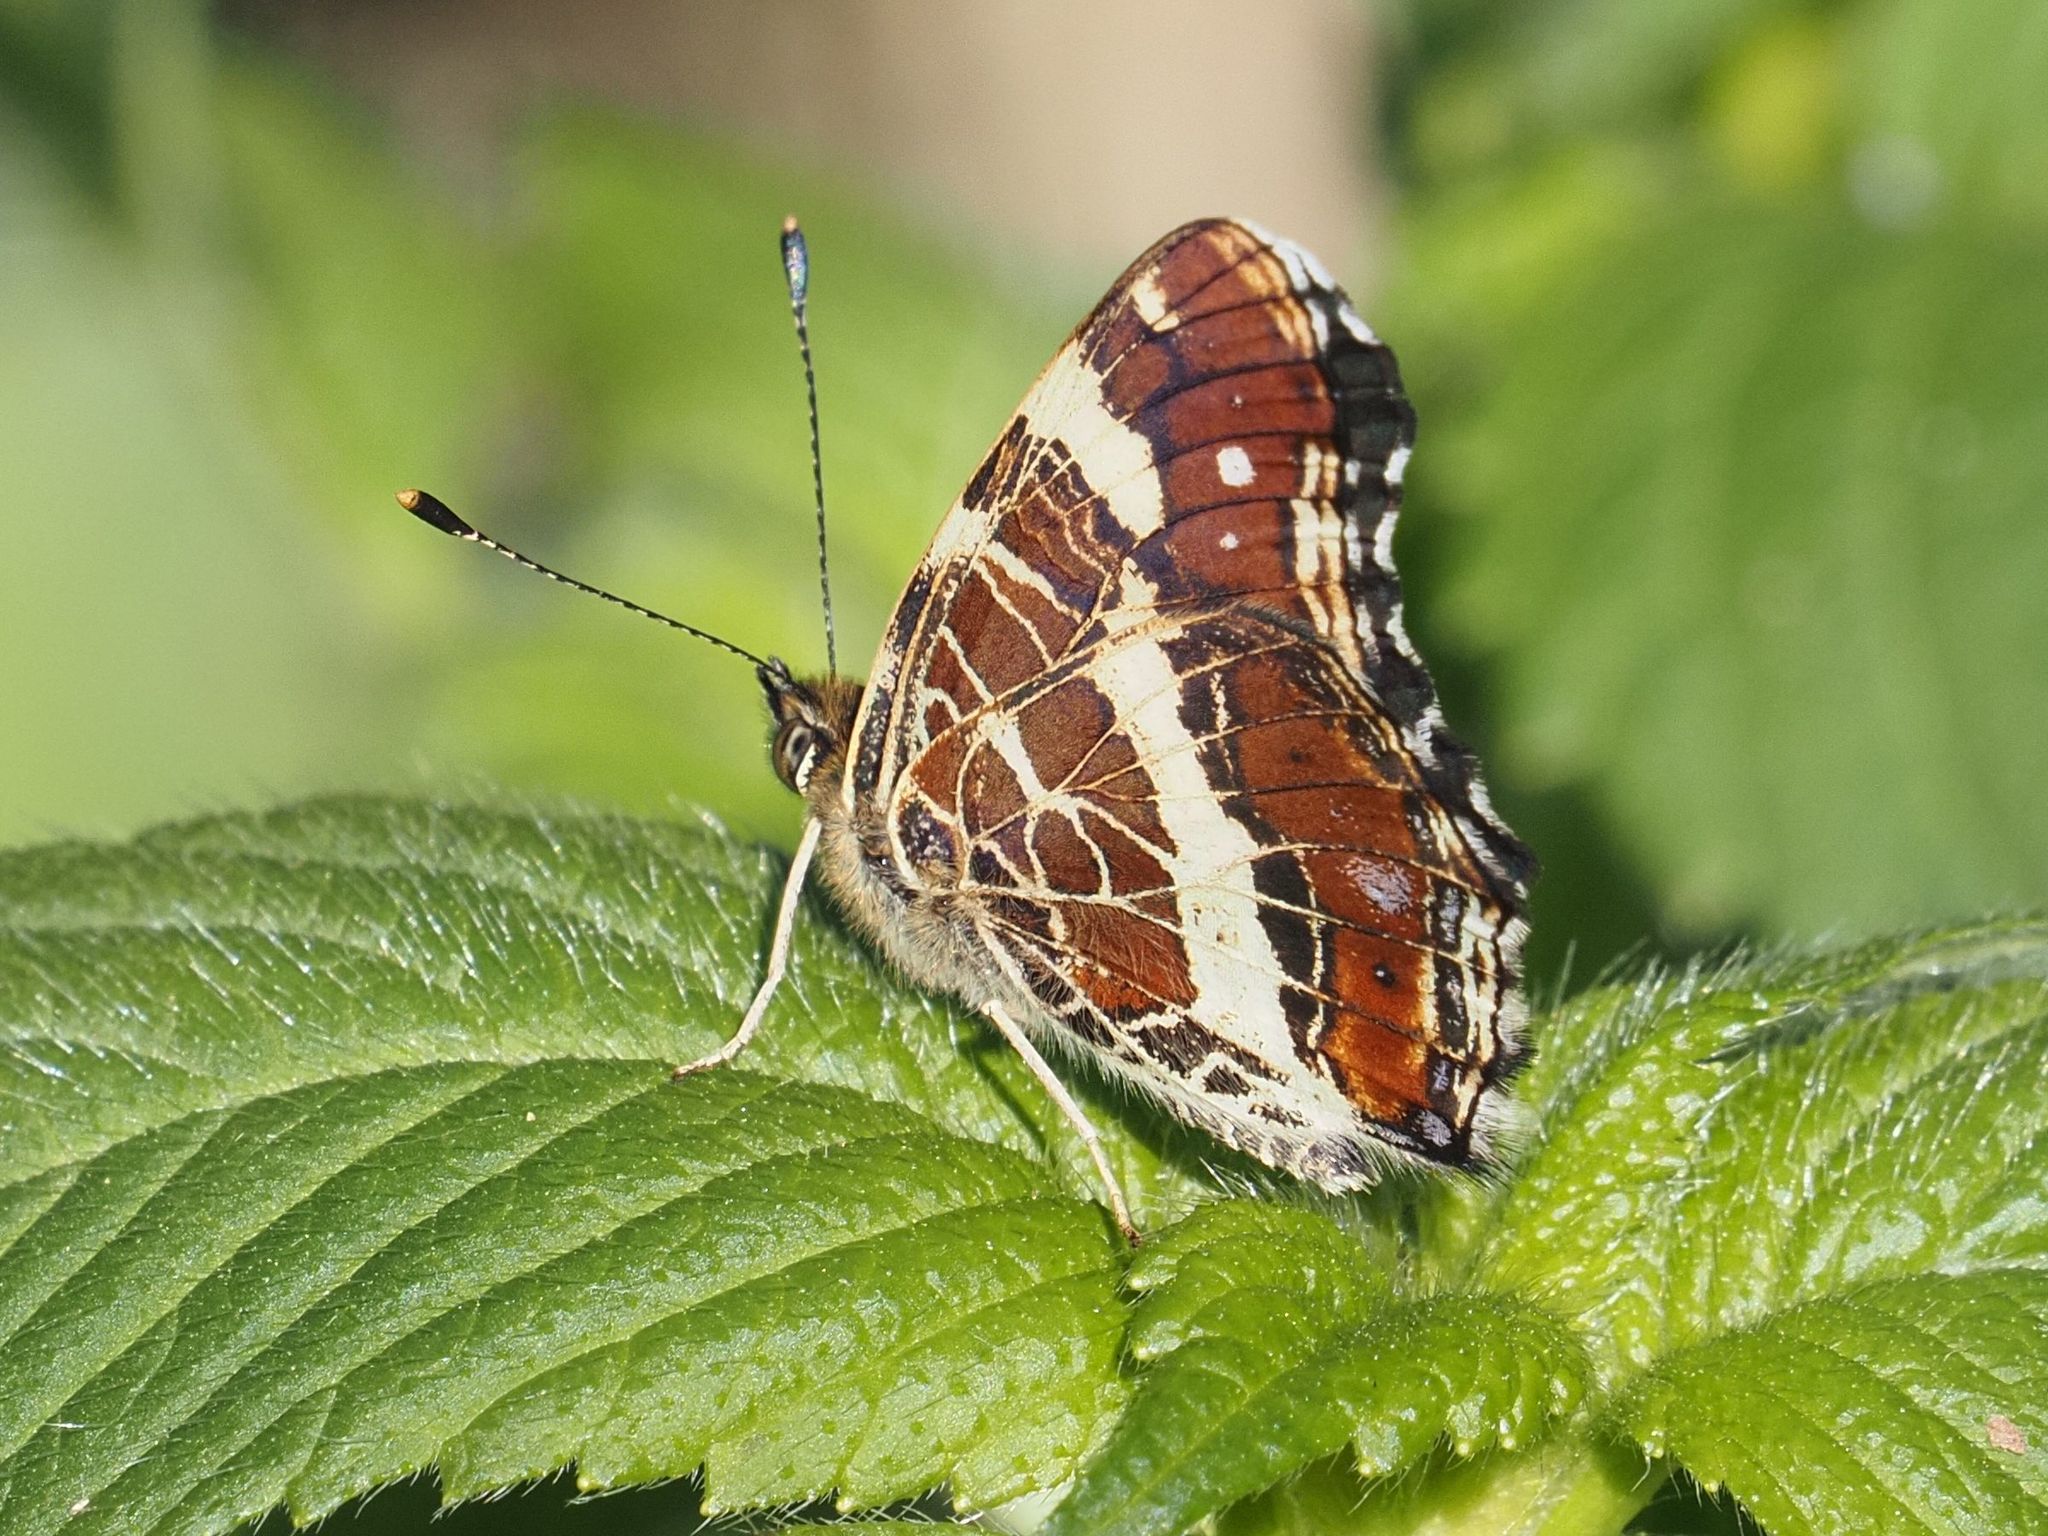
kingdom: Animalia
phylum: Arthropoda
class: Insecta
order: Lepidoptera
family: Nymphalidae
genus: Araschnia
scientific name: Araschnia levana
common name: Map butterfly
